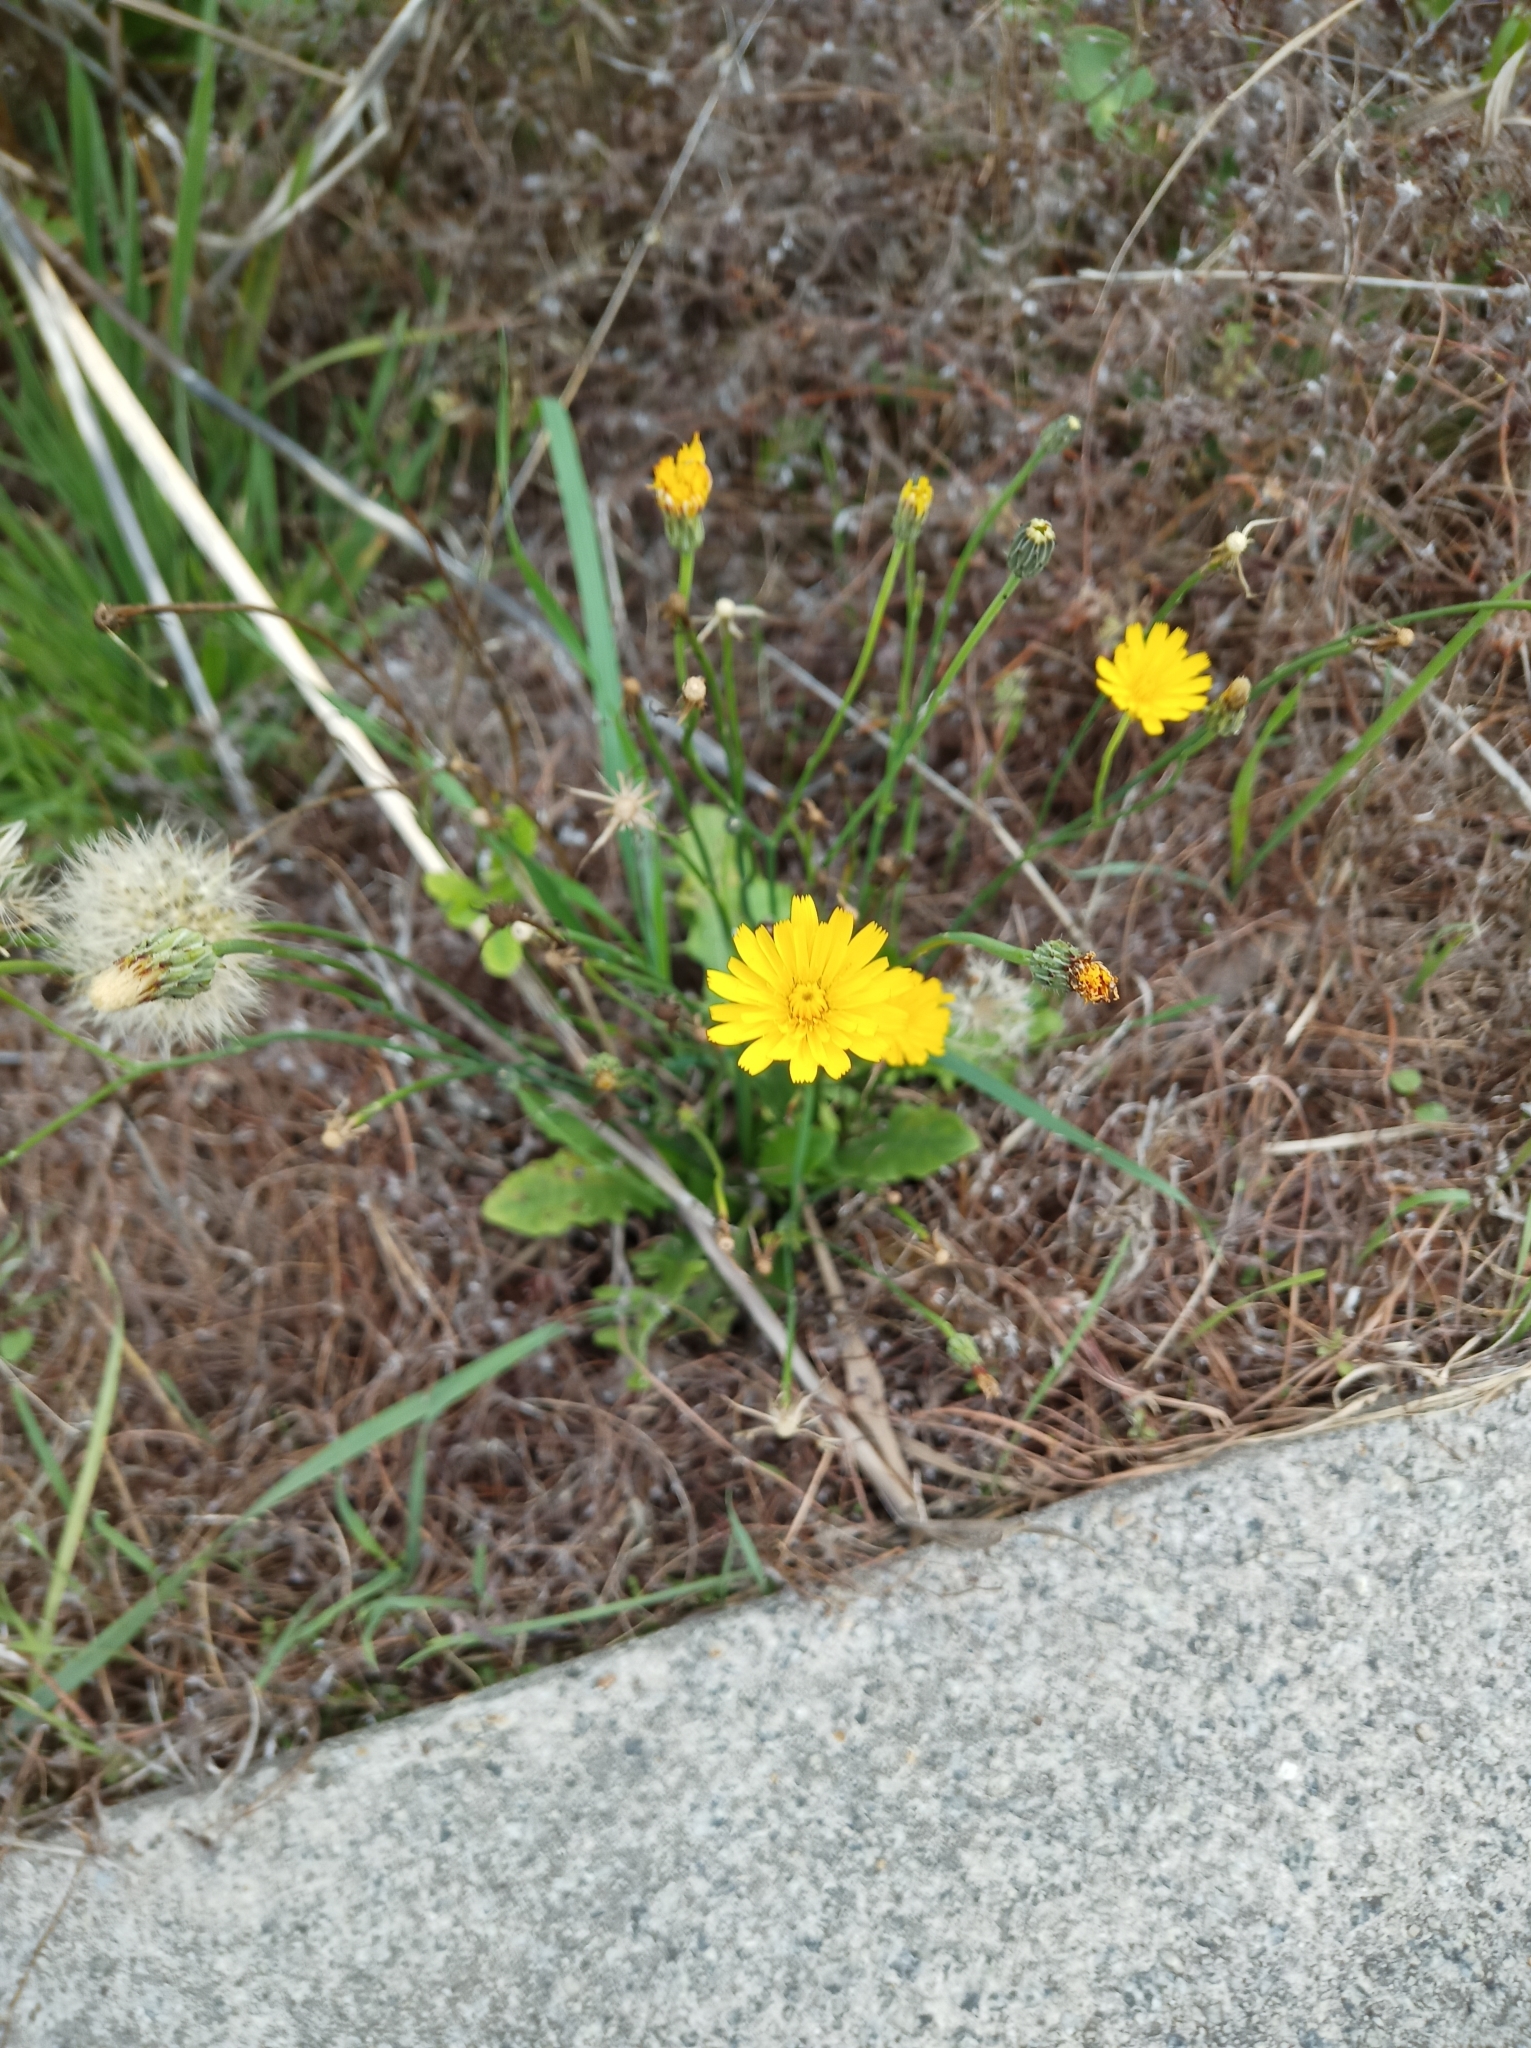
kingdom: Plantae
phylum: Tracheophyta
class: Magnoliopsida
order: Asterales
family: Asteraceae
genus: Taraxacum
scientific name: Taraxacum officinale
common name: Common dandelion
